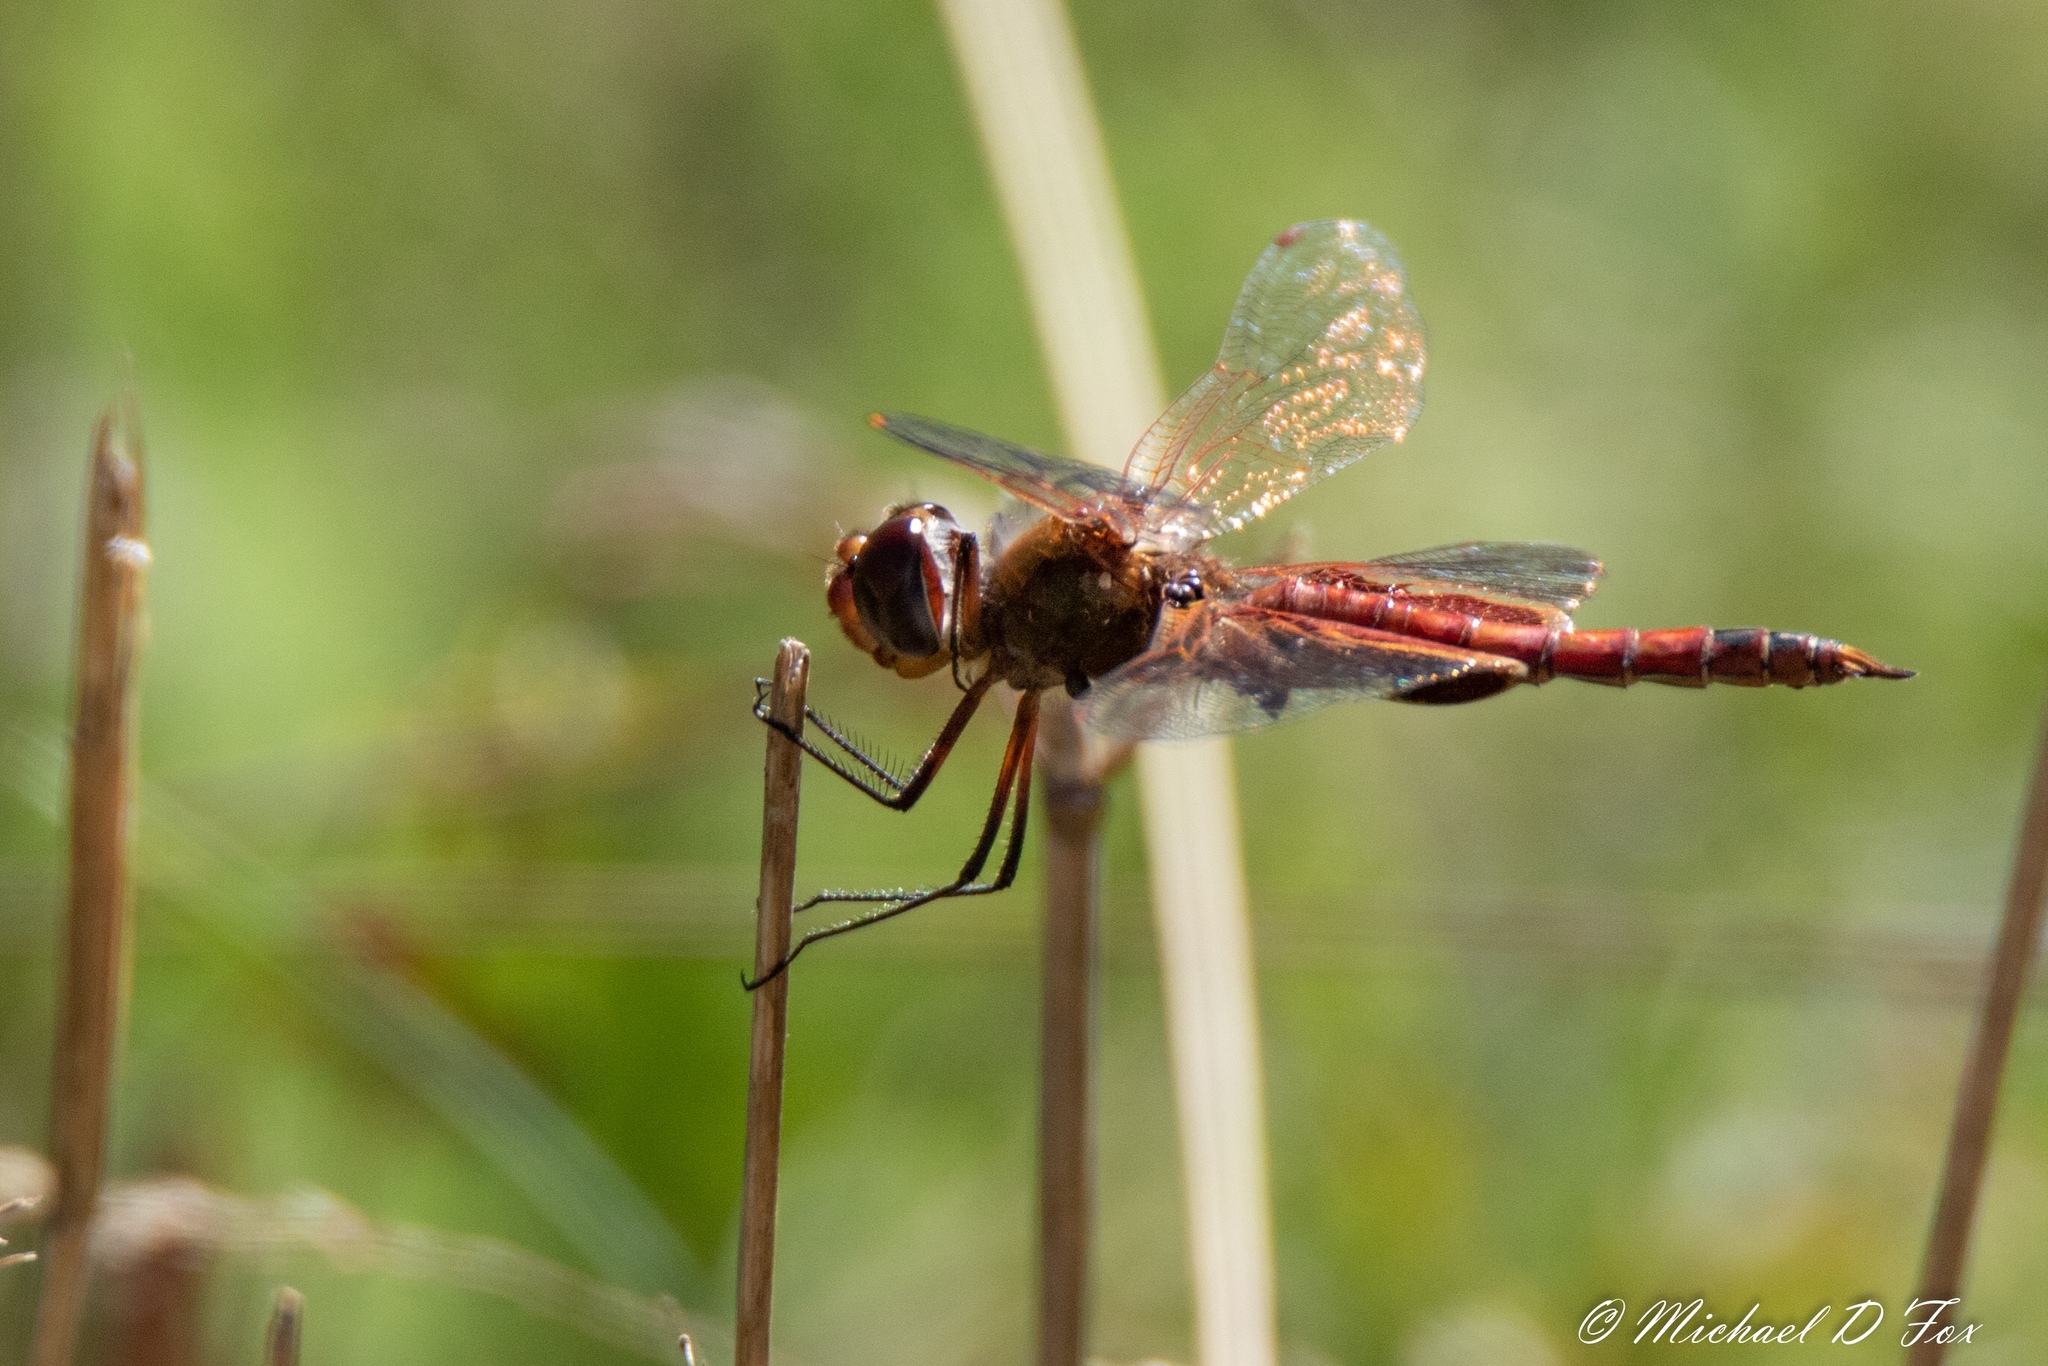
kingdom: Animalia
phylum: Arthropoda
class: Insecta
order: Odonata
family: Libellulidae
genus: Tramea
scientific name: Tramea onusta
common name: Red saddlebags
